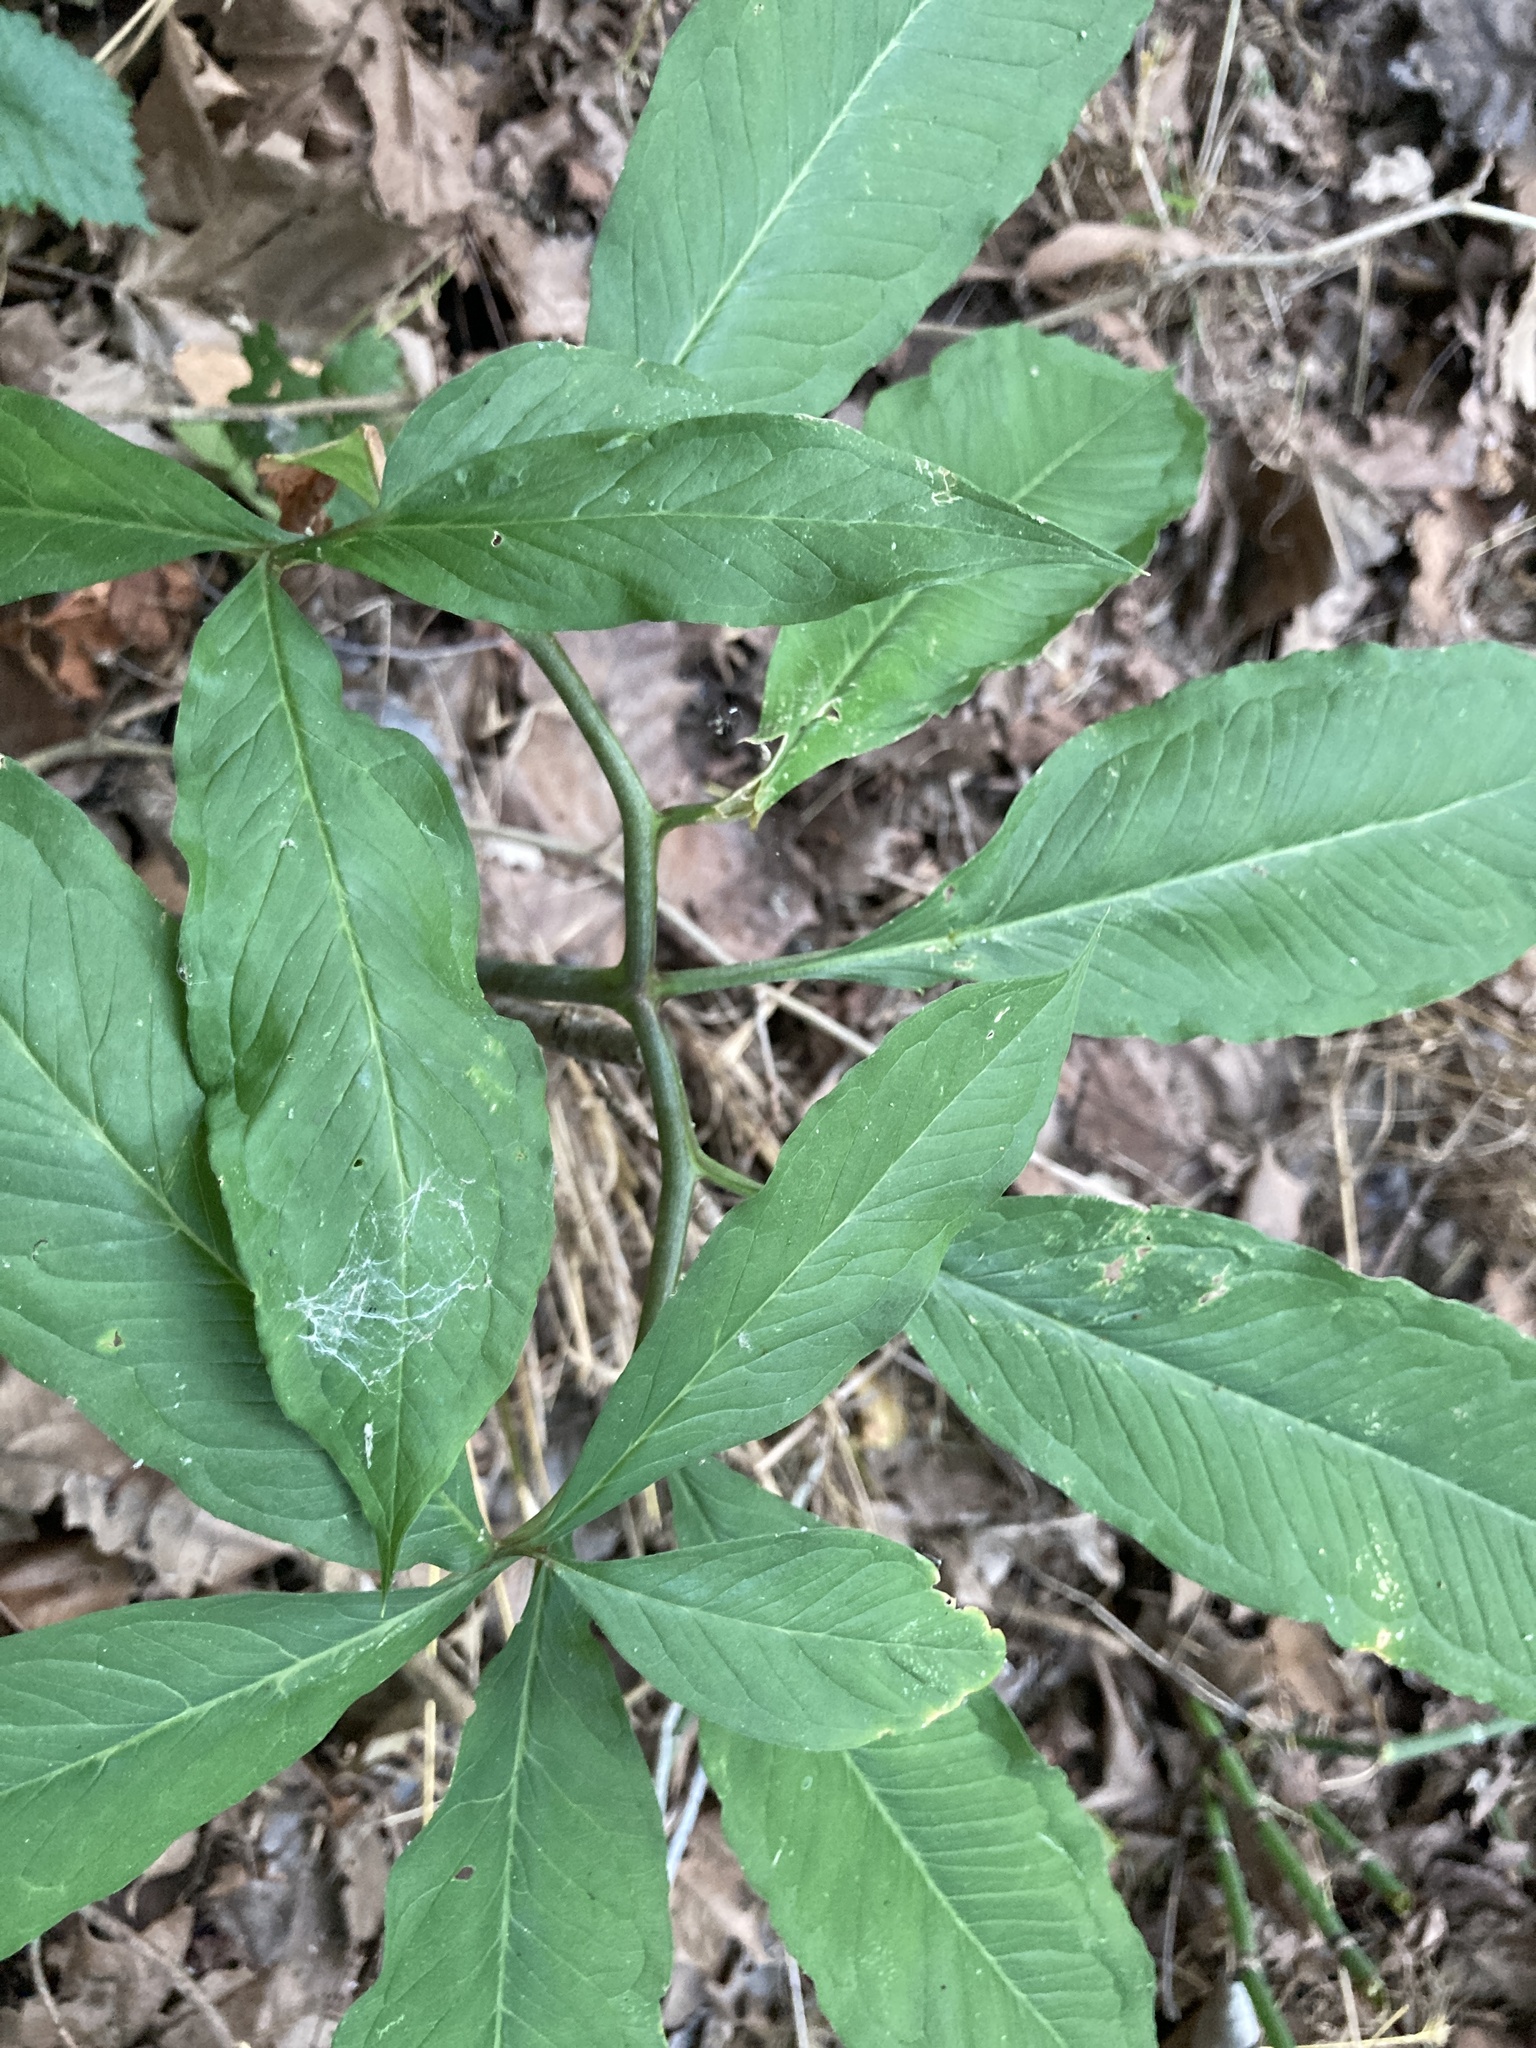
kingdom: Plantae
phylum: Tracheophyta
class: Liliopsida
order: Alismatales
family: Araceae
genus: Arisaema
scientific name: Arisaema dracontium
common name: Dragon-arum
